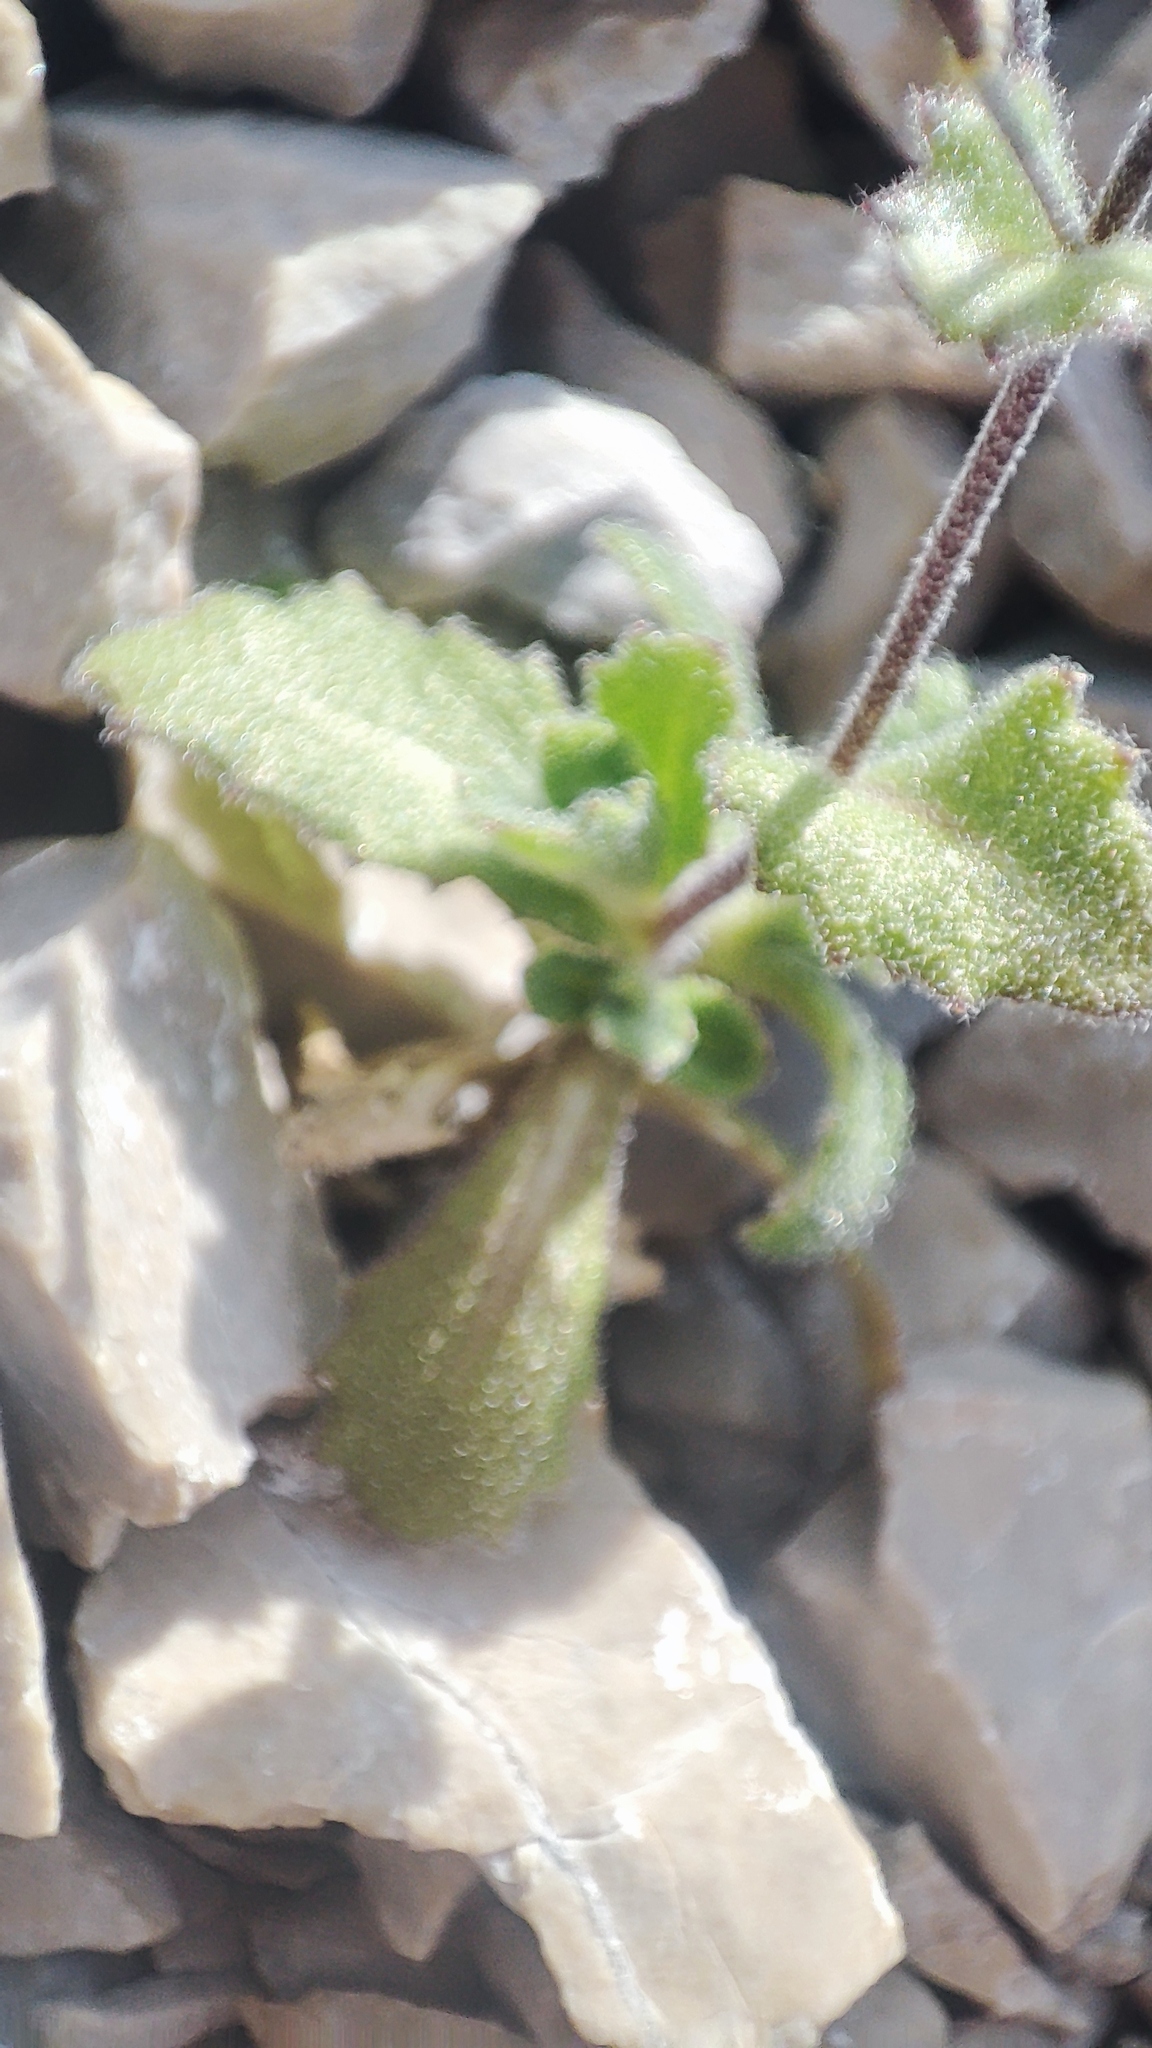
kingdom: Plantae
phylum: Tracheophyta
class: Magnoliopsida
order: Brassicales
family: Brassicaceae
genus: Arabis
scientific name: Arabis alpina
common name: Alpine rock-cress
